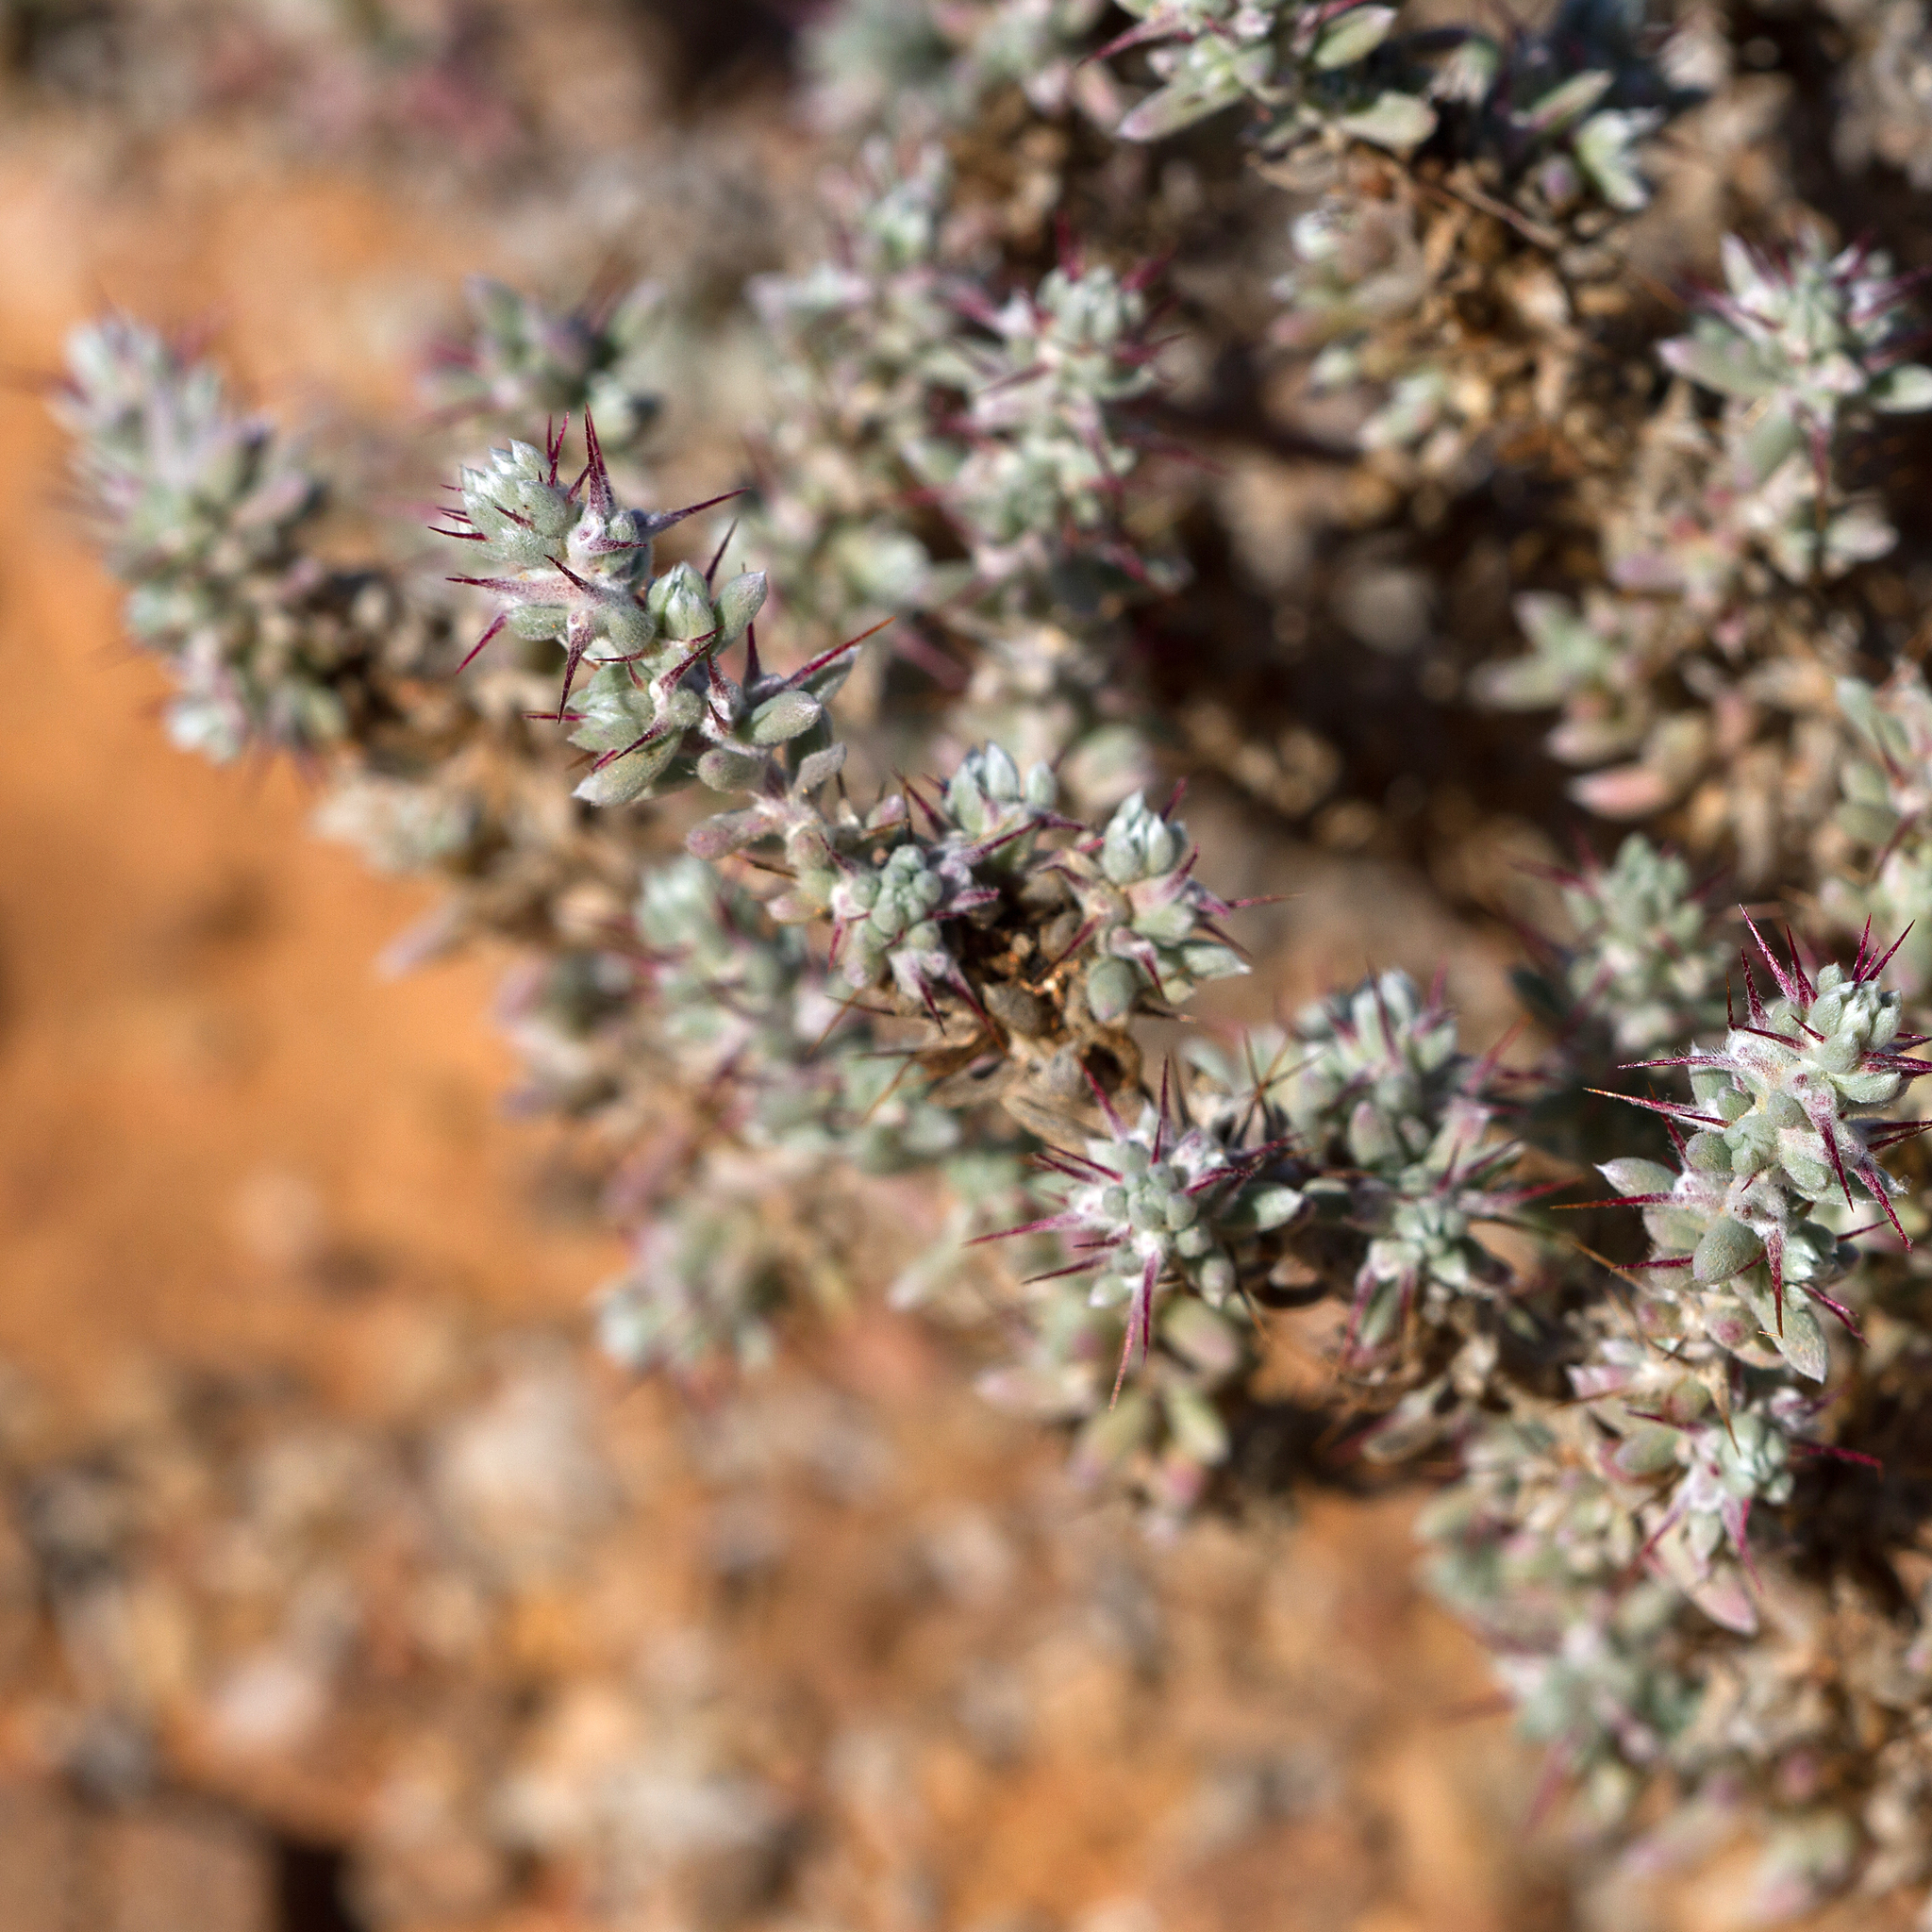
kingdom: Plantae
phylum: Tracheophyta
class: Magnoliopsida
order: Caryophyllales
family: Amaranthaceae
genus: Sclerolaena
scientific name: Sclerolaena obliquicuspis
